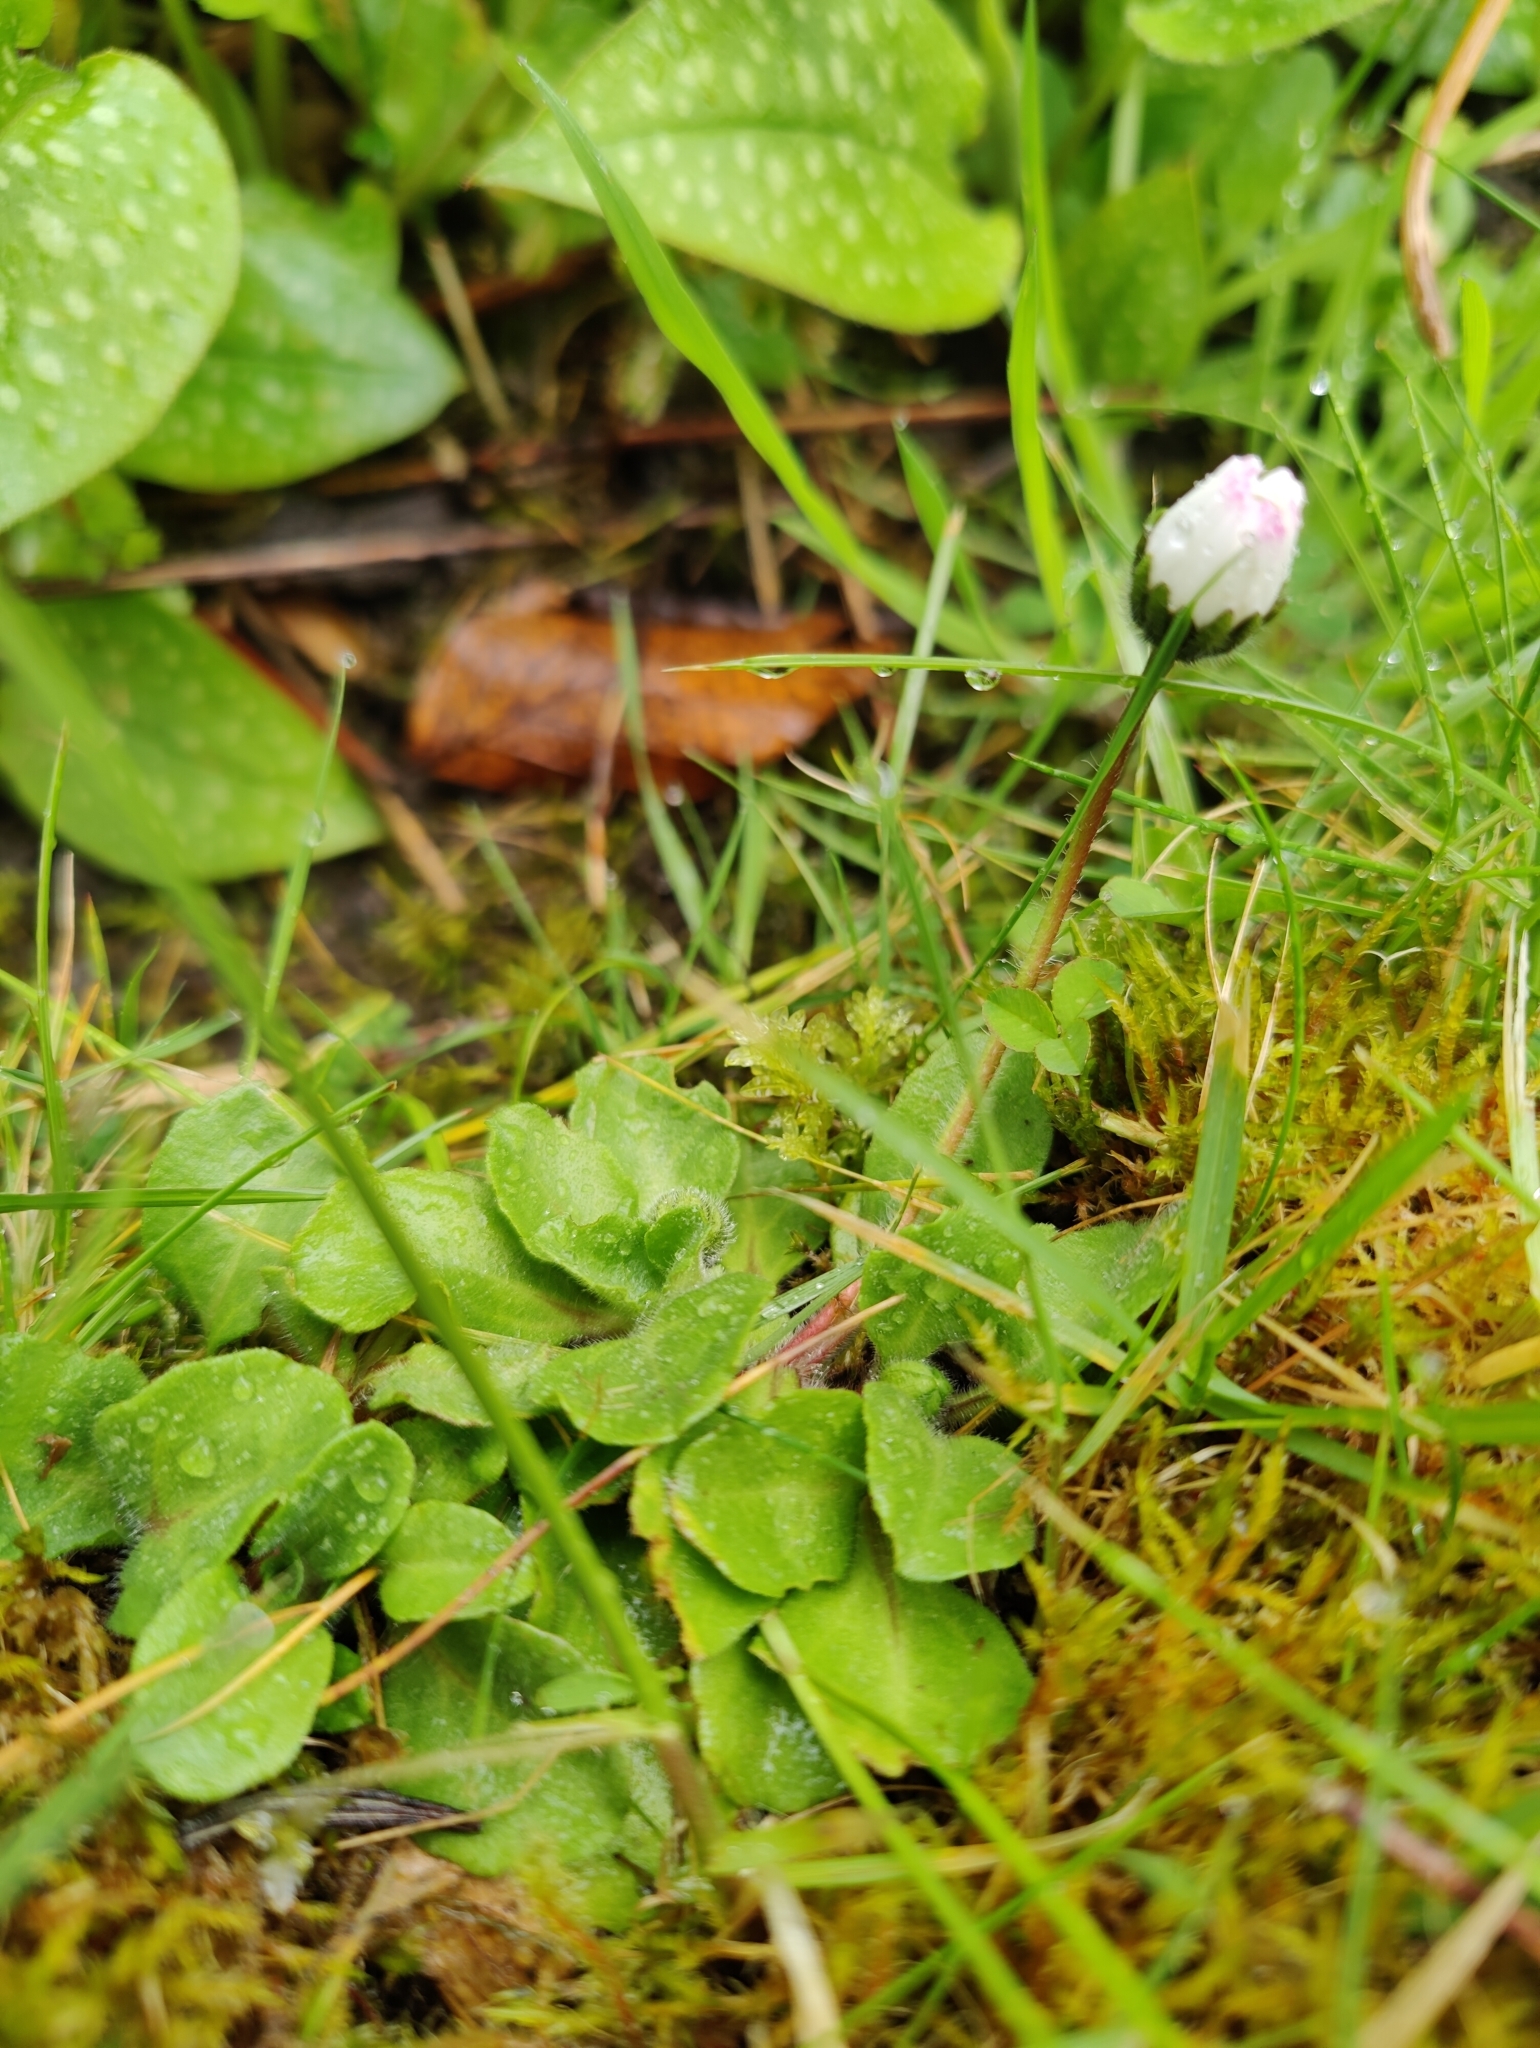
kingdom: Plantae
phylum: Tracheophyta
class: Magnoliopsida
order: Asterales
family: Asteraceae
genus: Bellis
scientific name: Bellis perennis
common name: Lawndaisy
